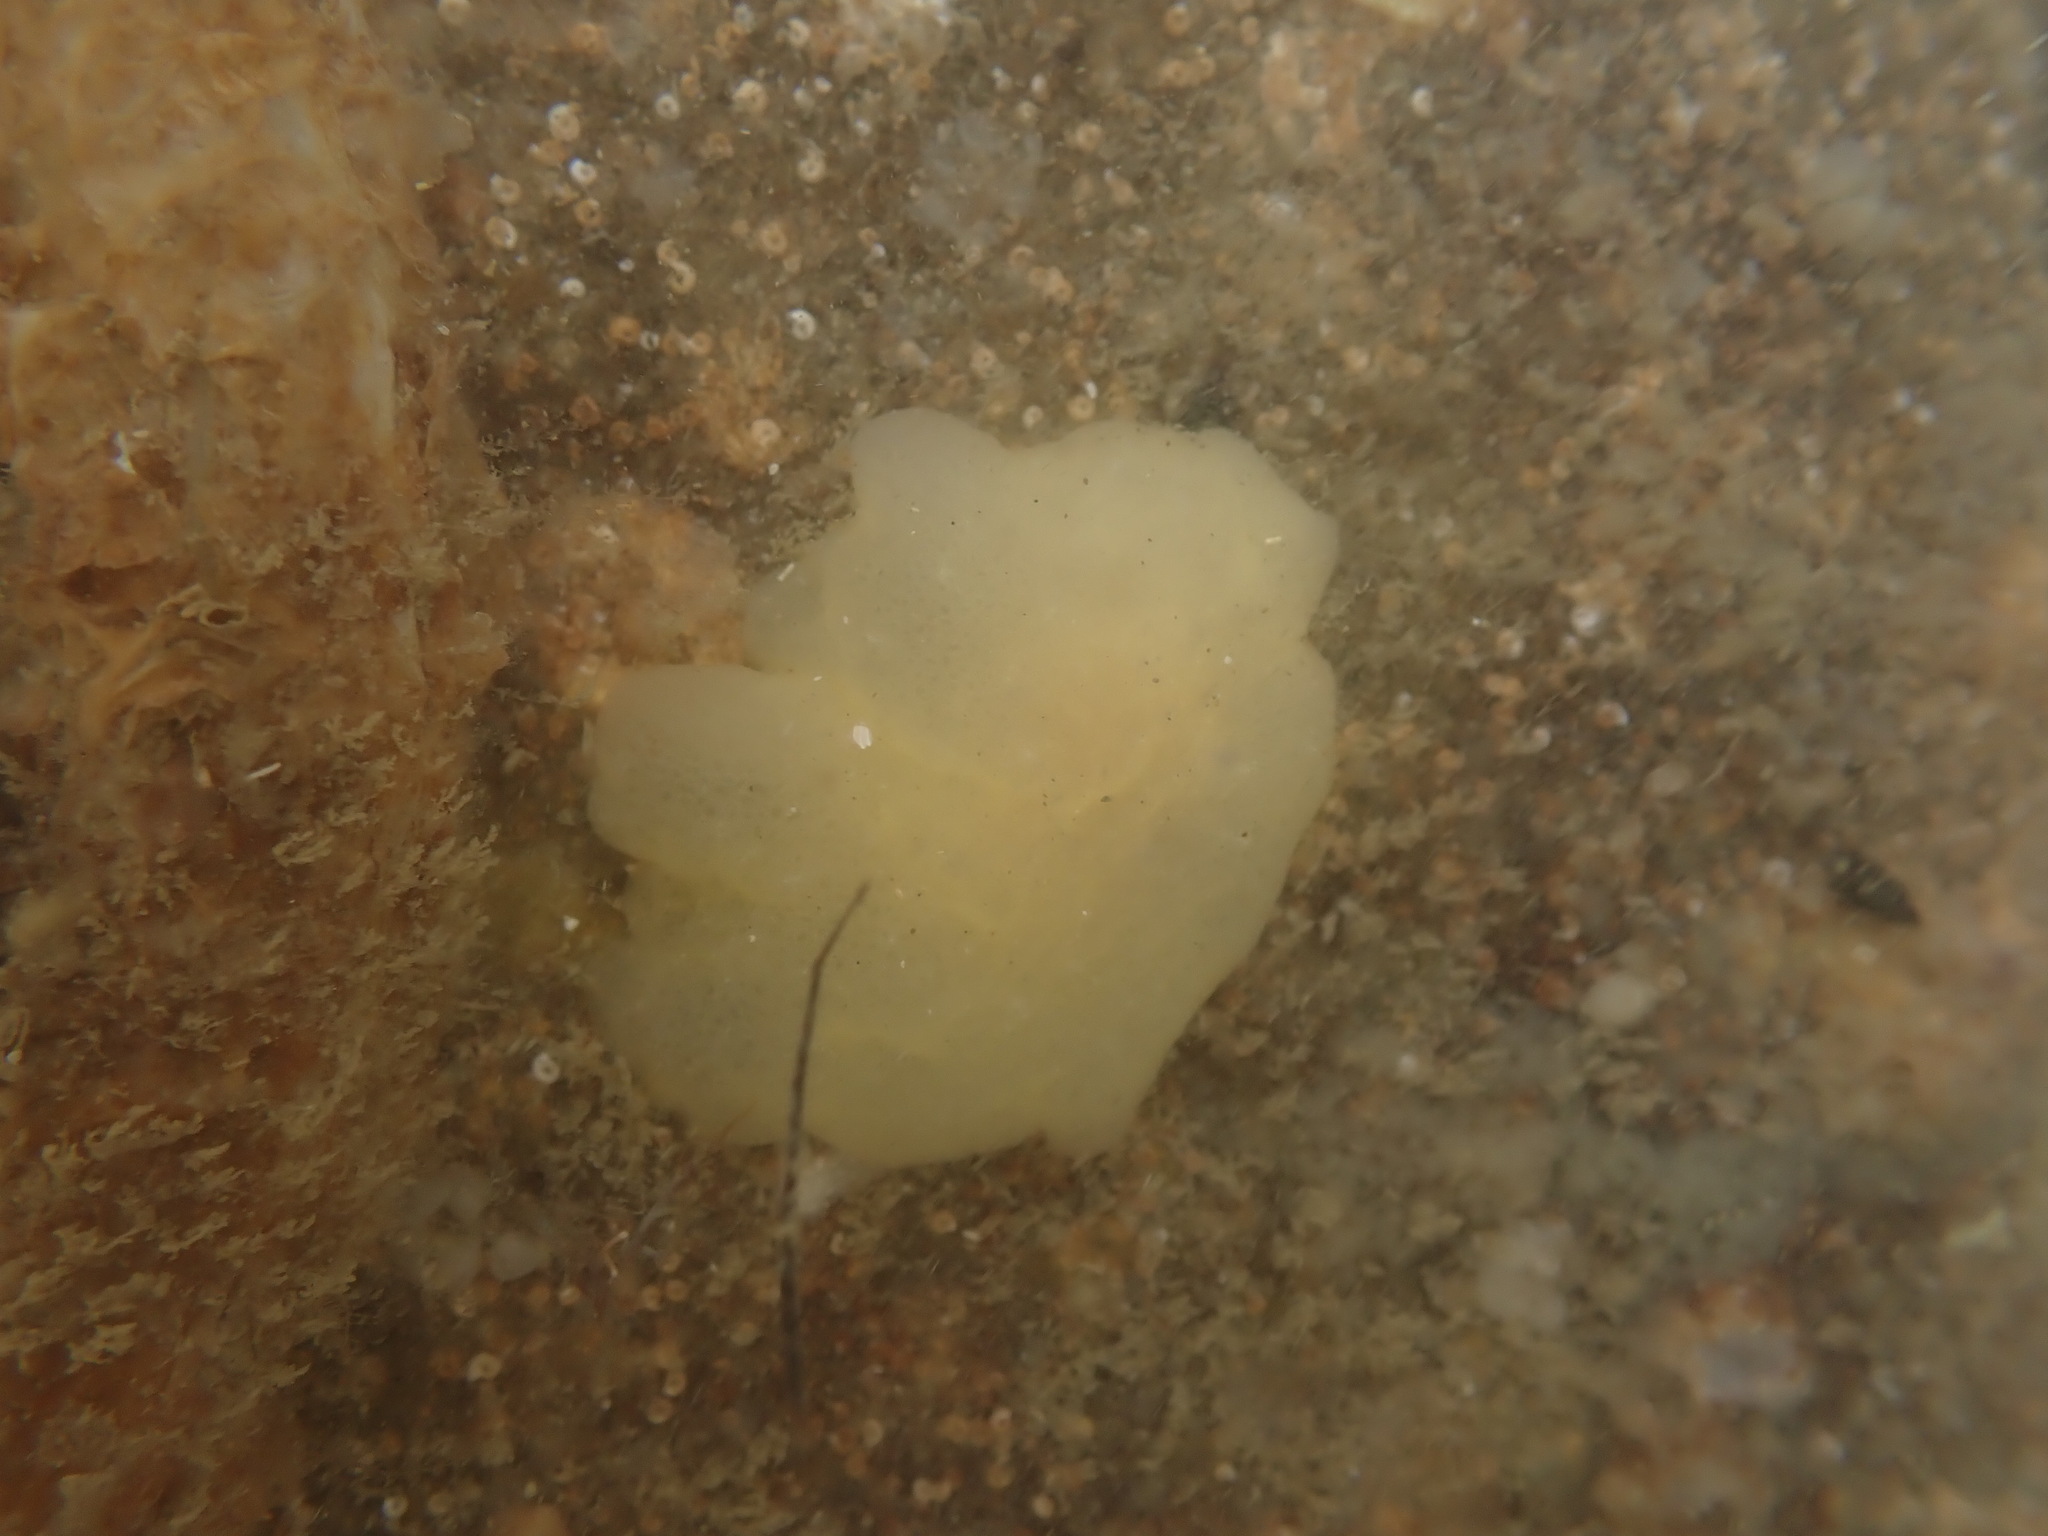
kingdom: Animalia
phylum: Mollusca
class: Gastropoda
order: Pleurobranchida
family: Pleurobranchidae
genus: Berthella
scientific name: Berthella medietas
